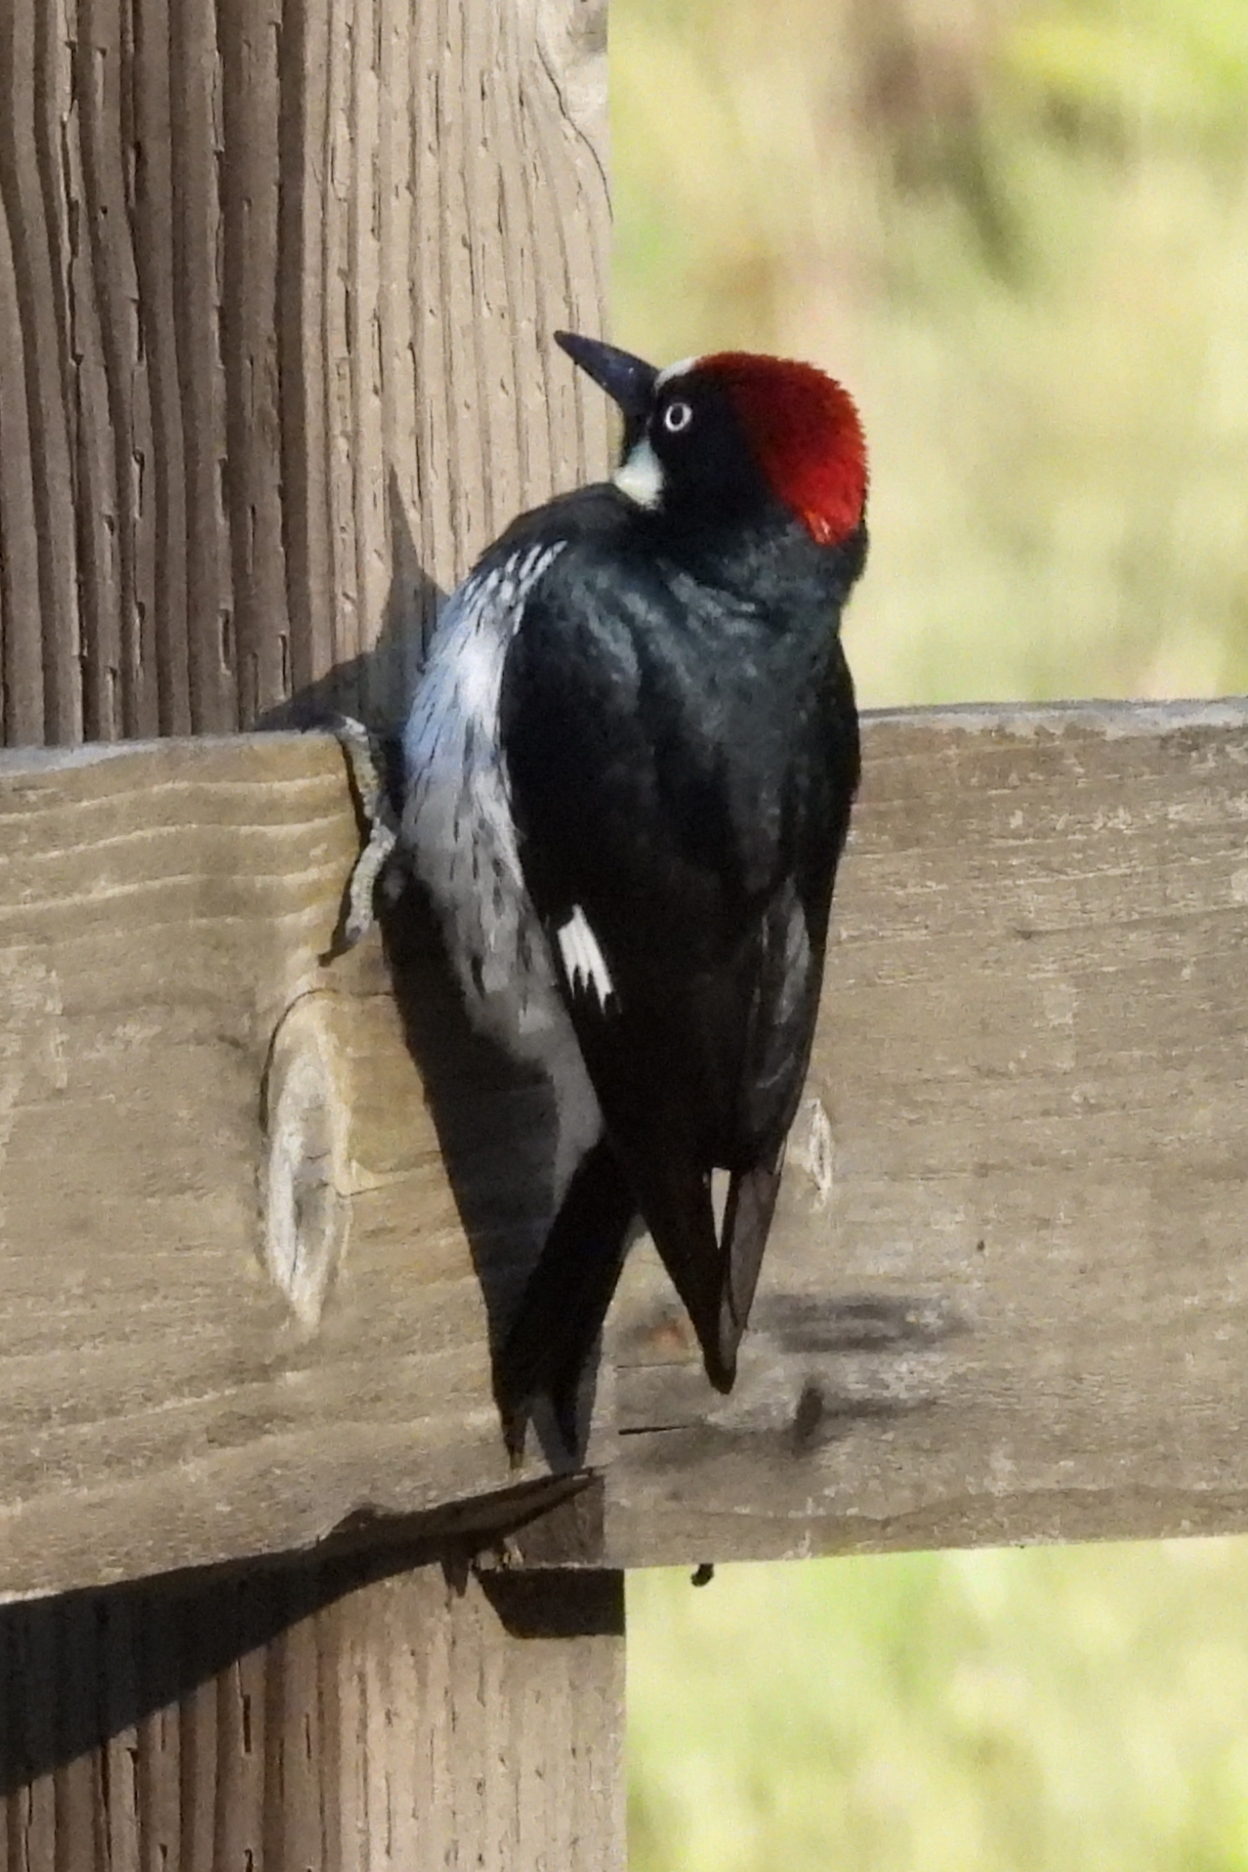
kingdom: Animalia
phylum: Chordata
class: Aves
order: Piciformes
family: Picidae
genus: Melanerpes
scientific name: Melanerpes formicivorus
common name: Acorn woodpecker
